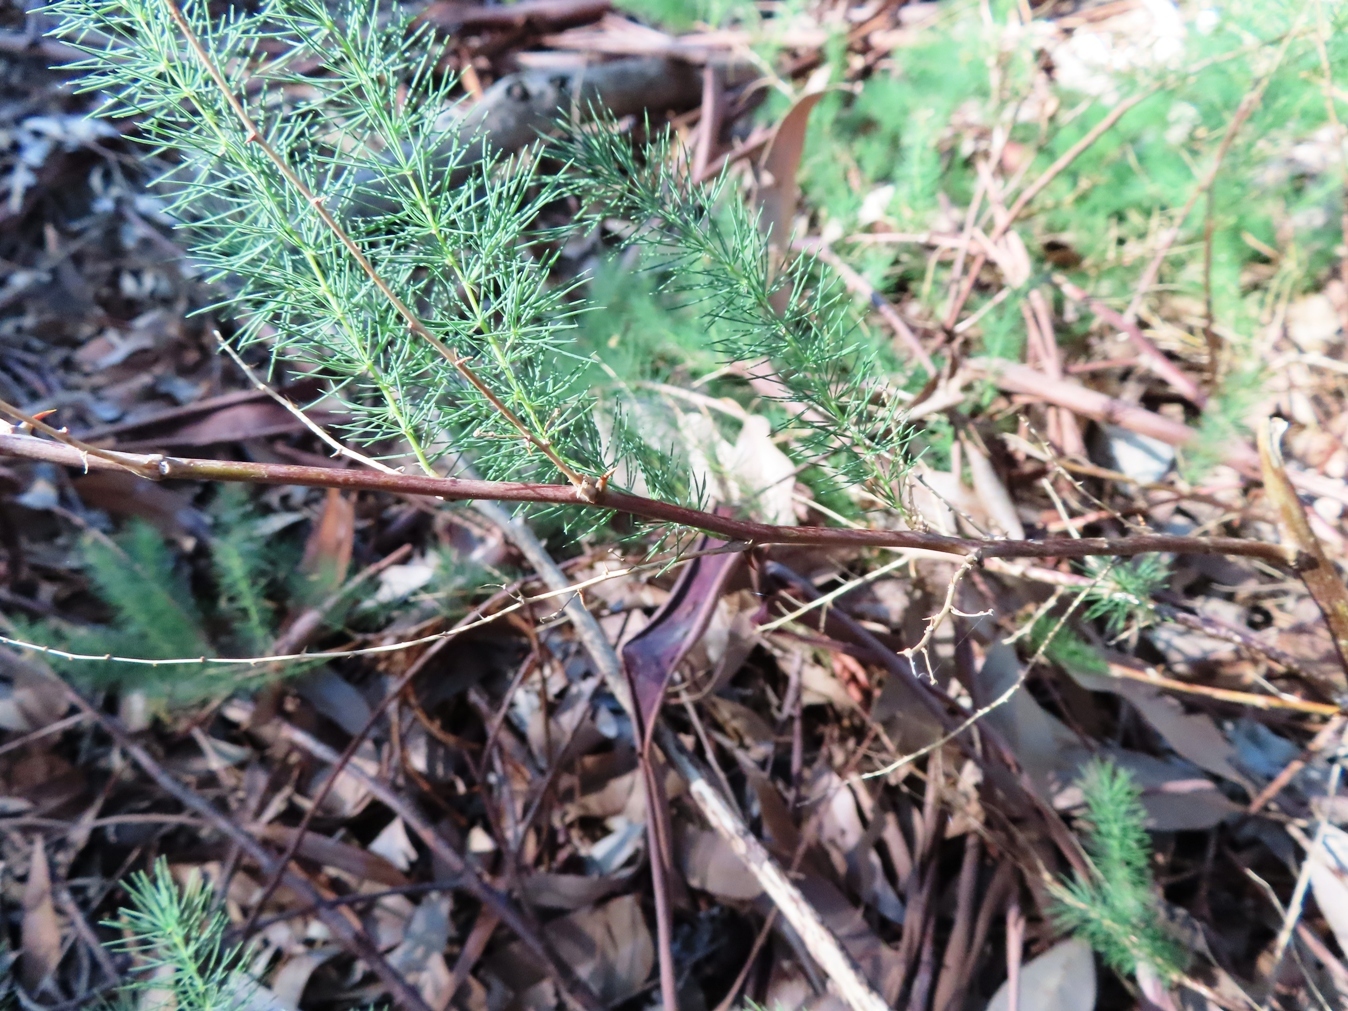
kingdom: Plantae
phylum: Tracheophyta
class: Liliopsida
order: Asparagales
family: Asparagaceae
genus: Asparagus
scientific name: Asparagus rubicundus
